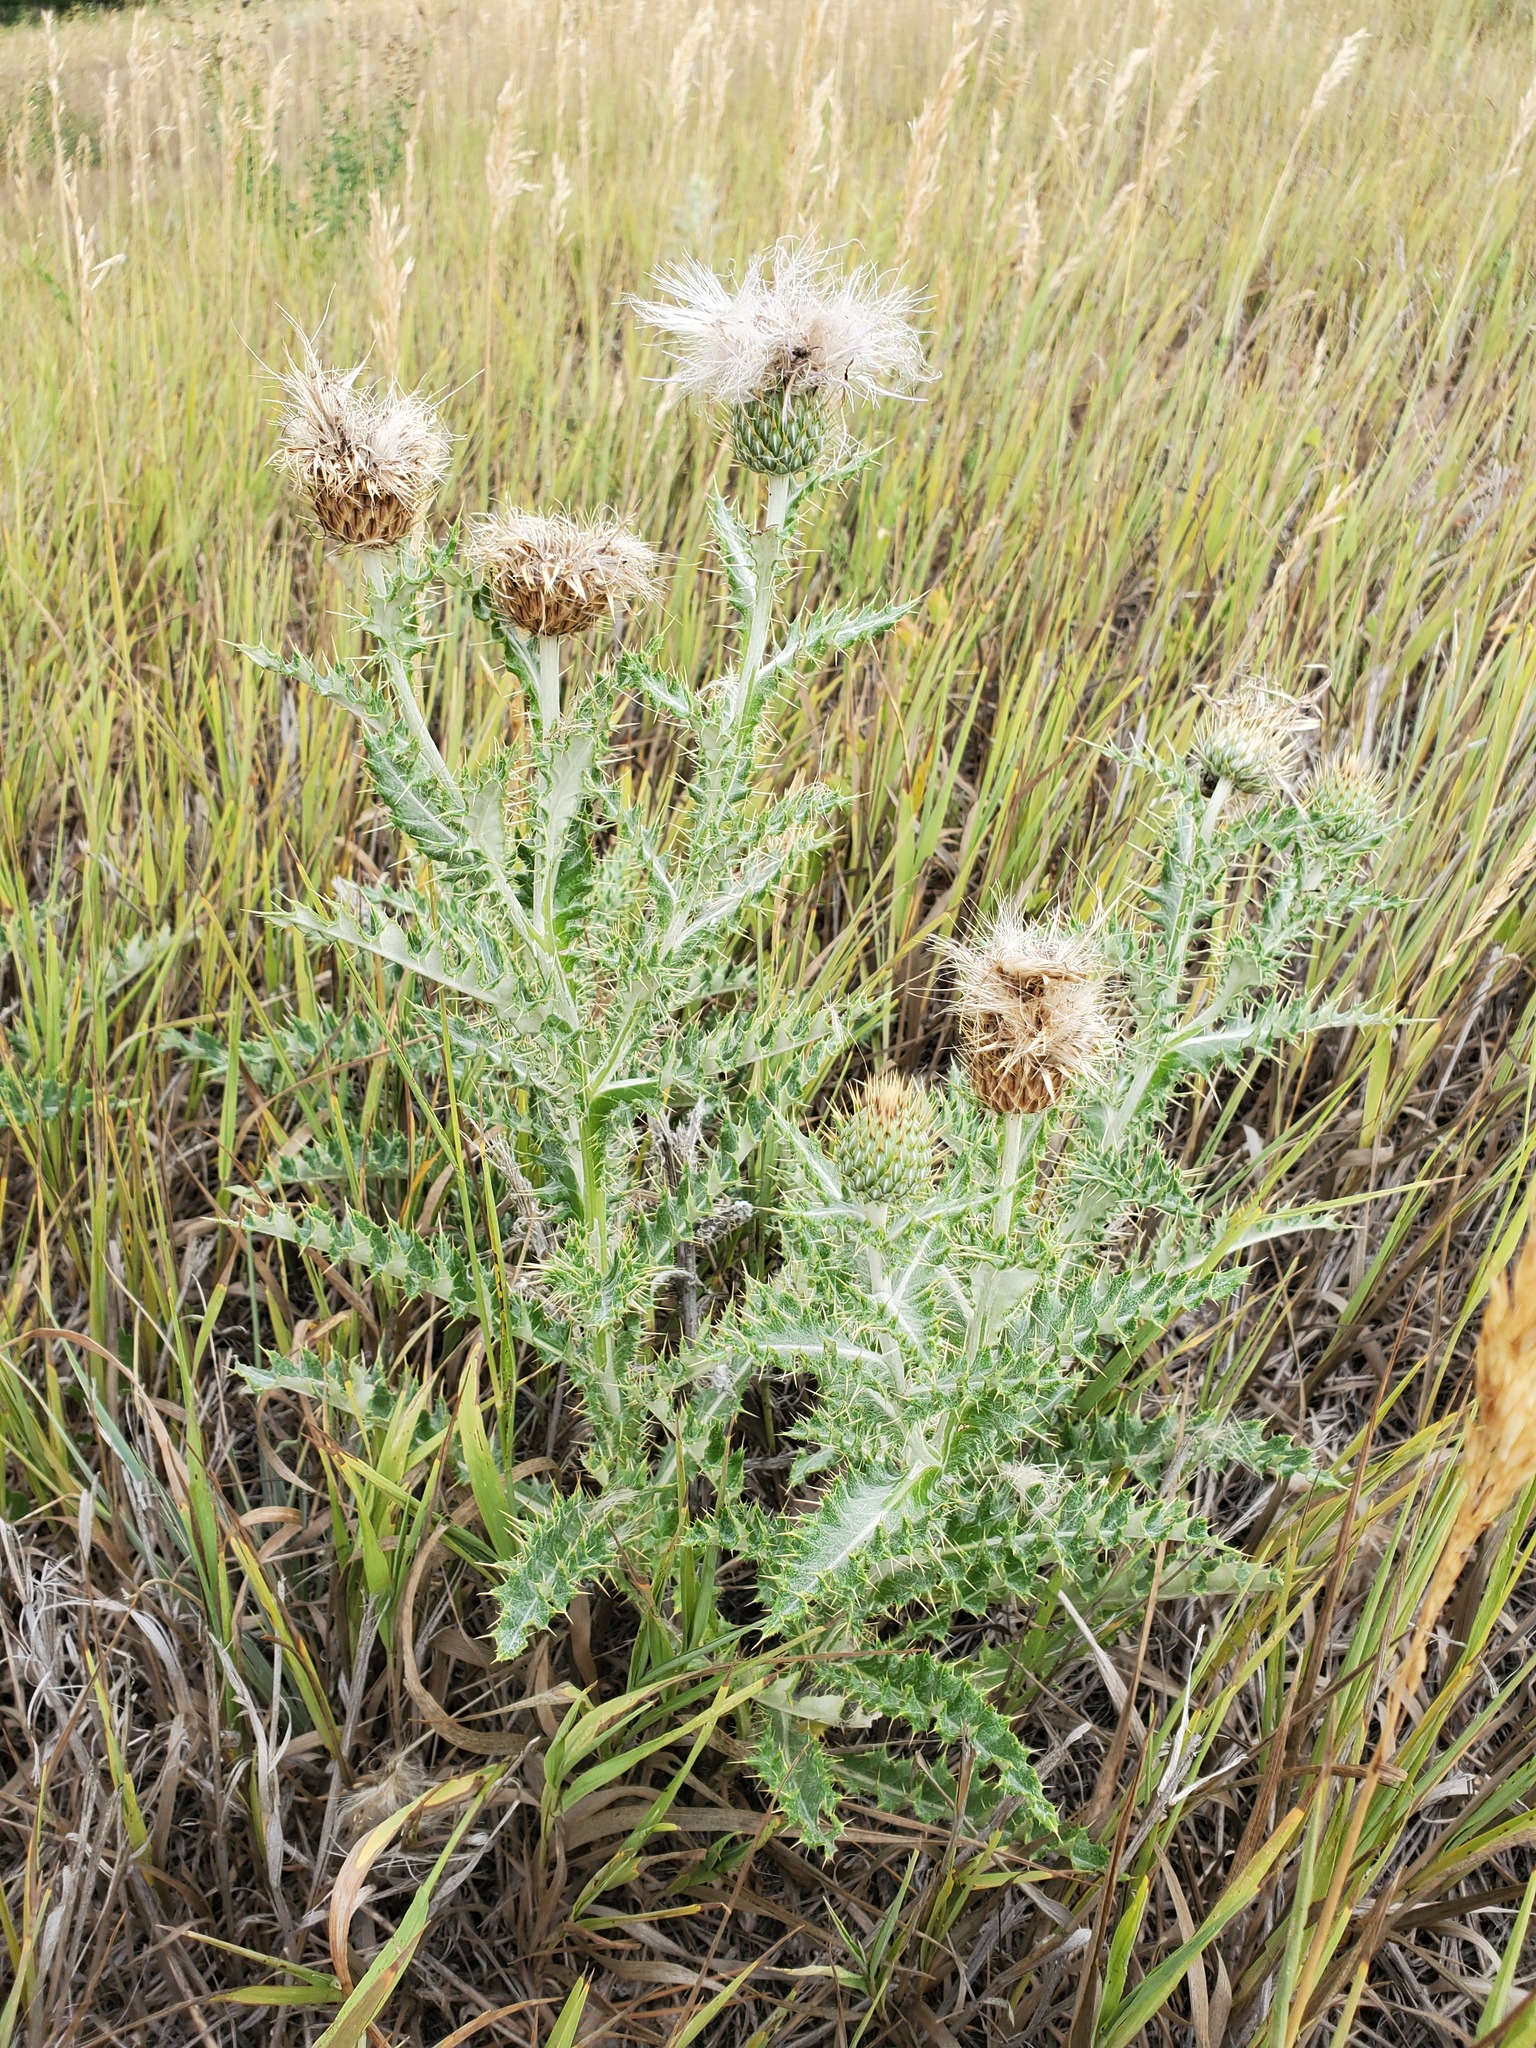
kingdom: Plantae
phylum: Tracheophyta
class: Magnoliopsida
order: Asterales
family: Asteraceae
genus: Cirsium
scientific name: Cirsium ochrocentrum
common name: Yellow-spine thistle
